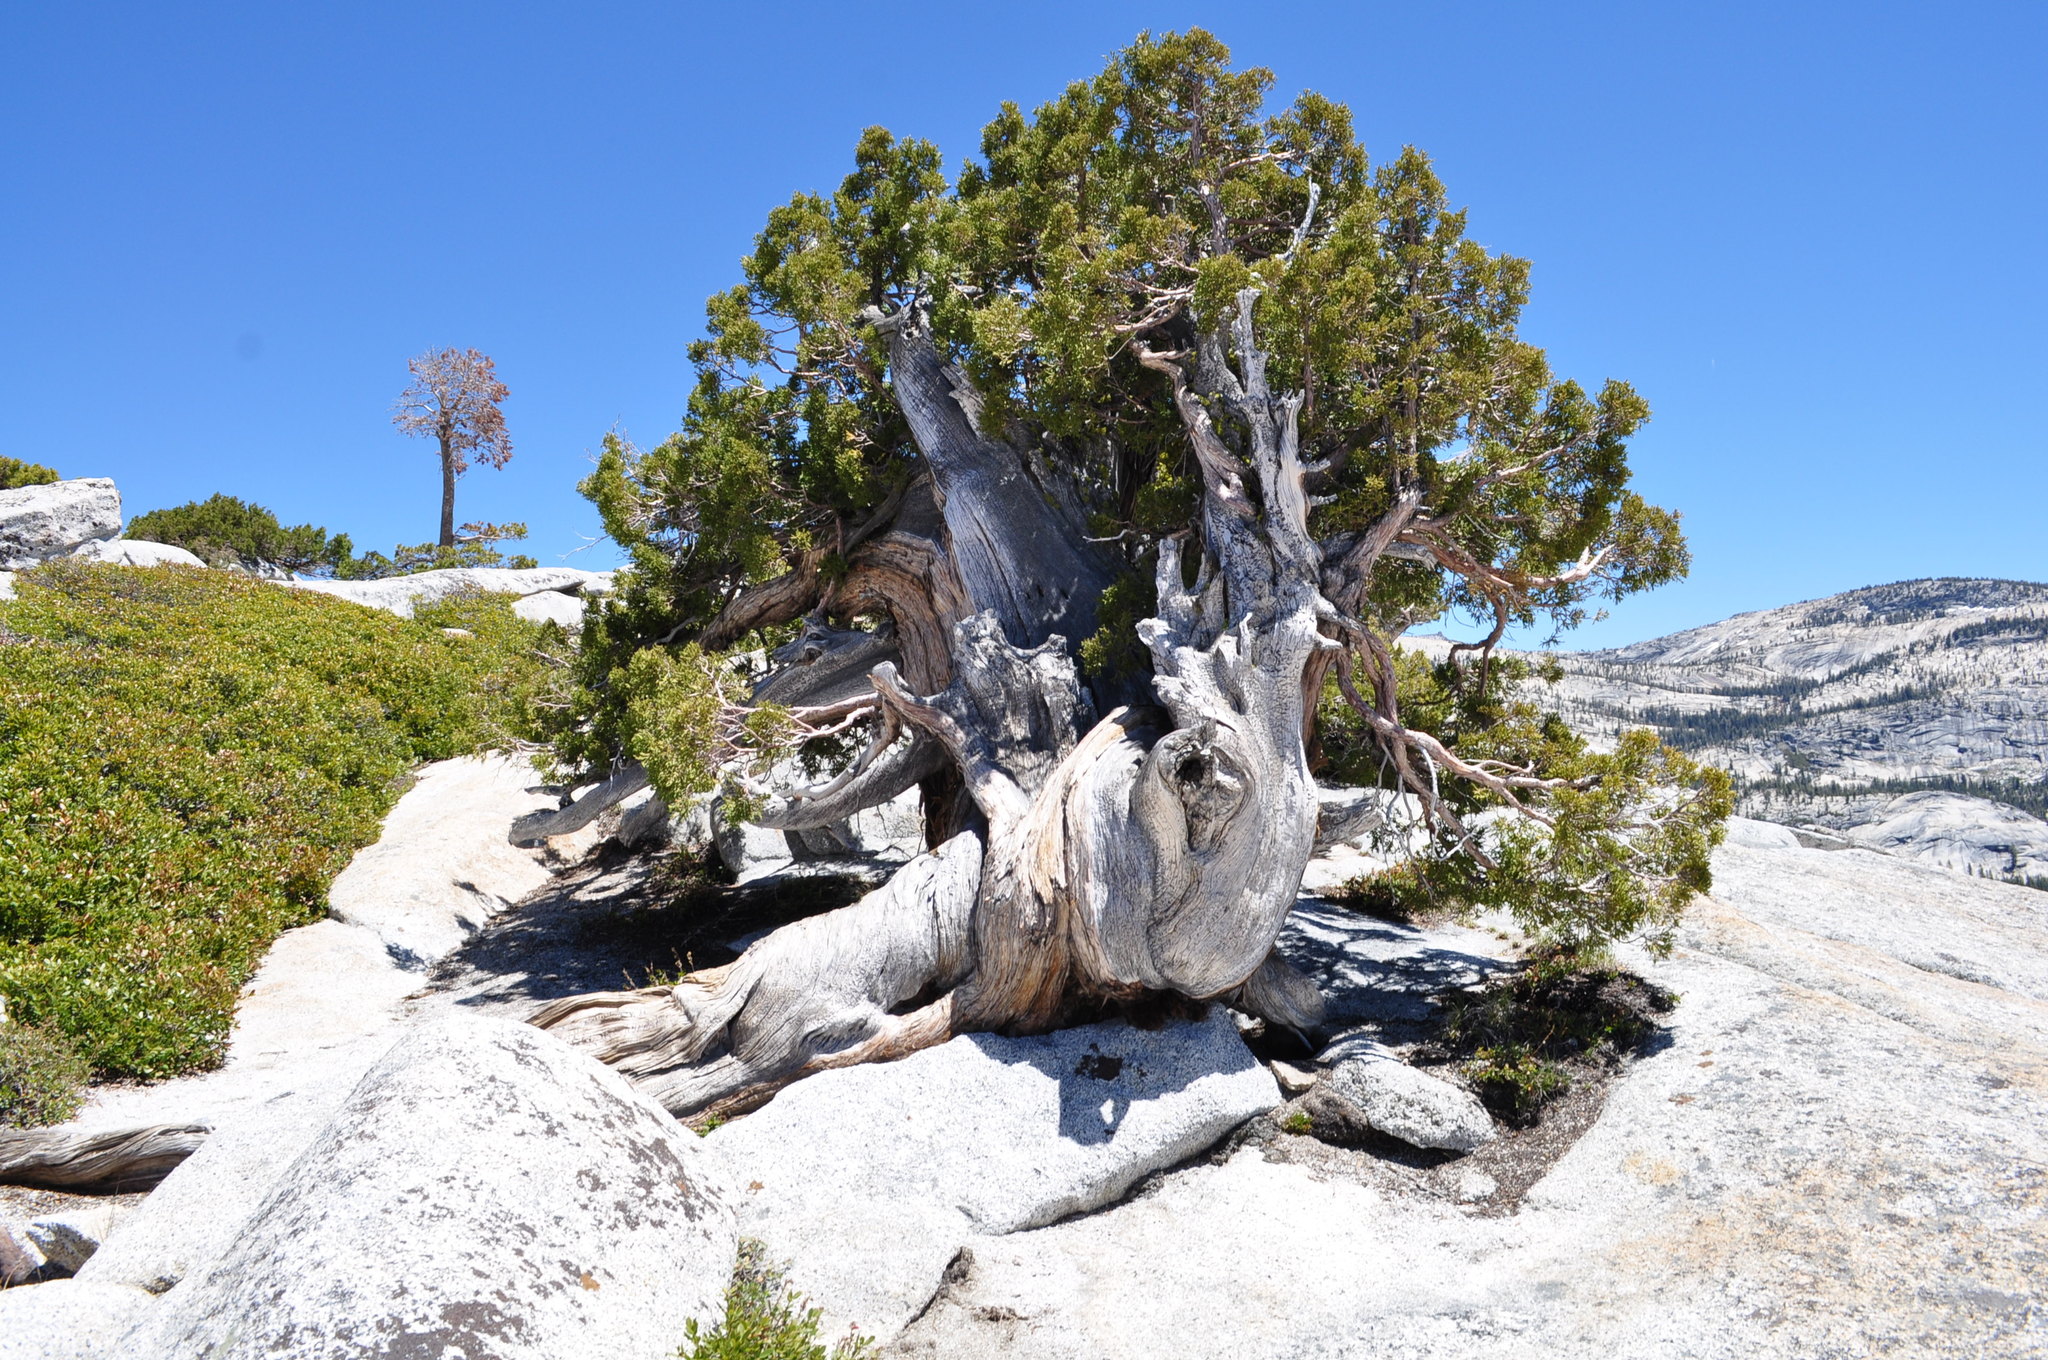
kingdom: Plantae
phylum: Tracheophyta
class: Pinopsida
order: Pinales
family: Cupressaceae
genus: Juniperus
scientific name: Juniperus occidentalis
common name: Western juniper
